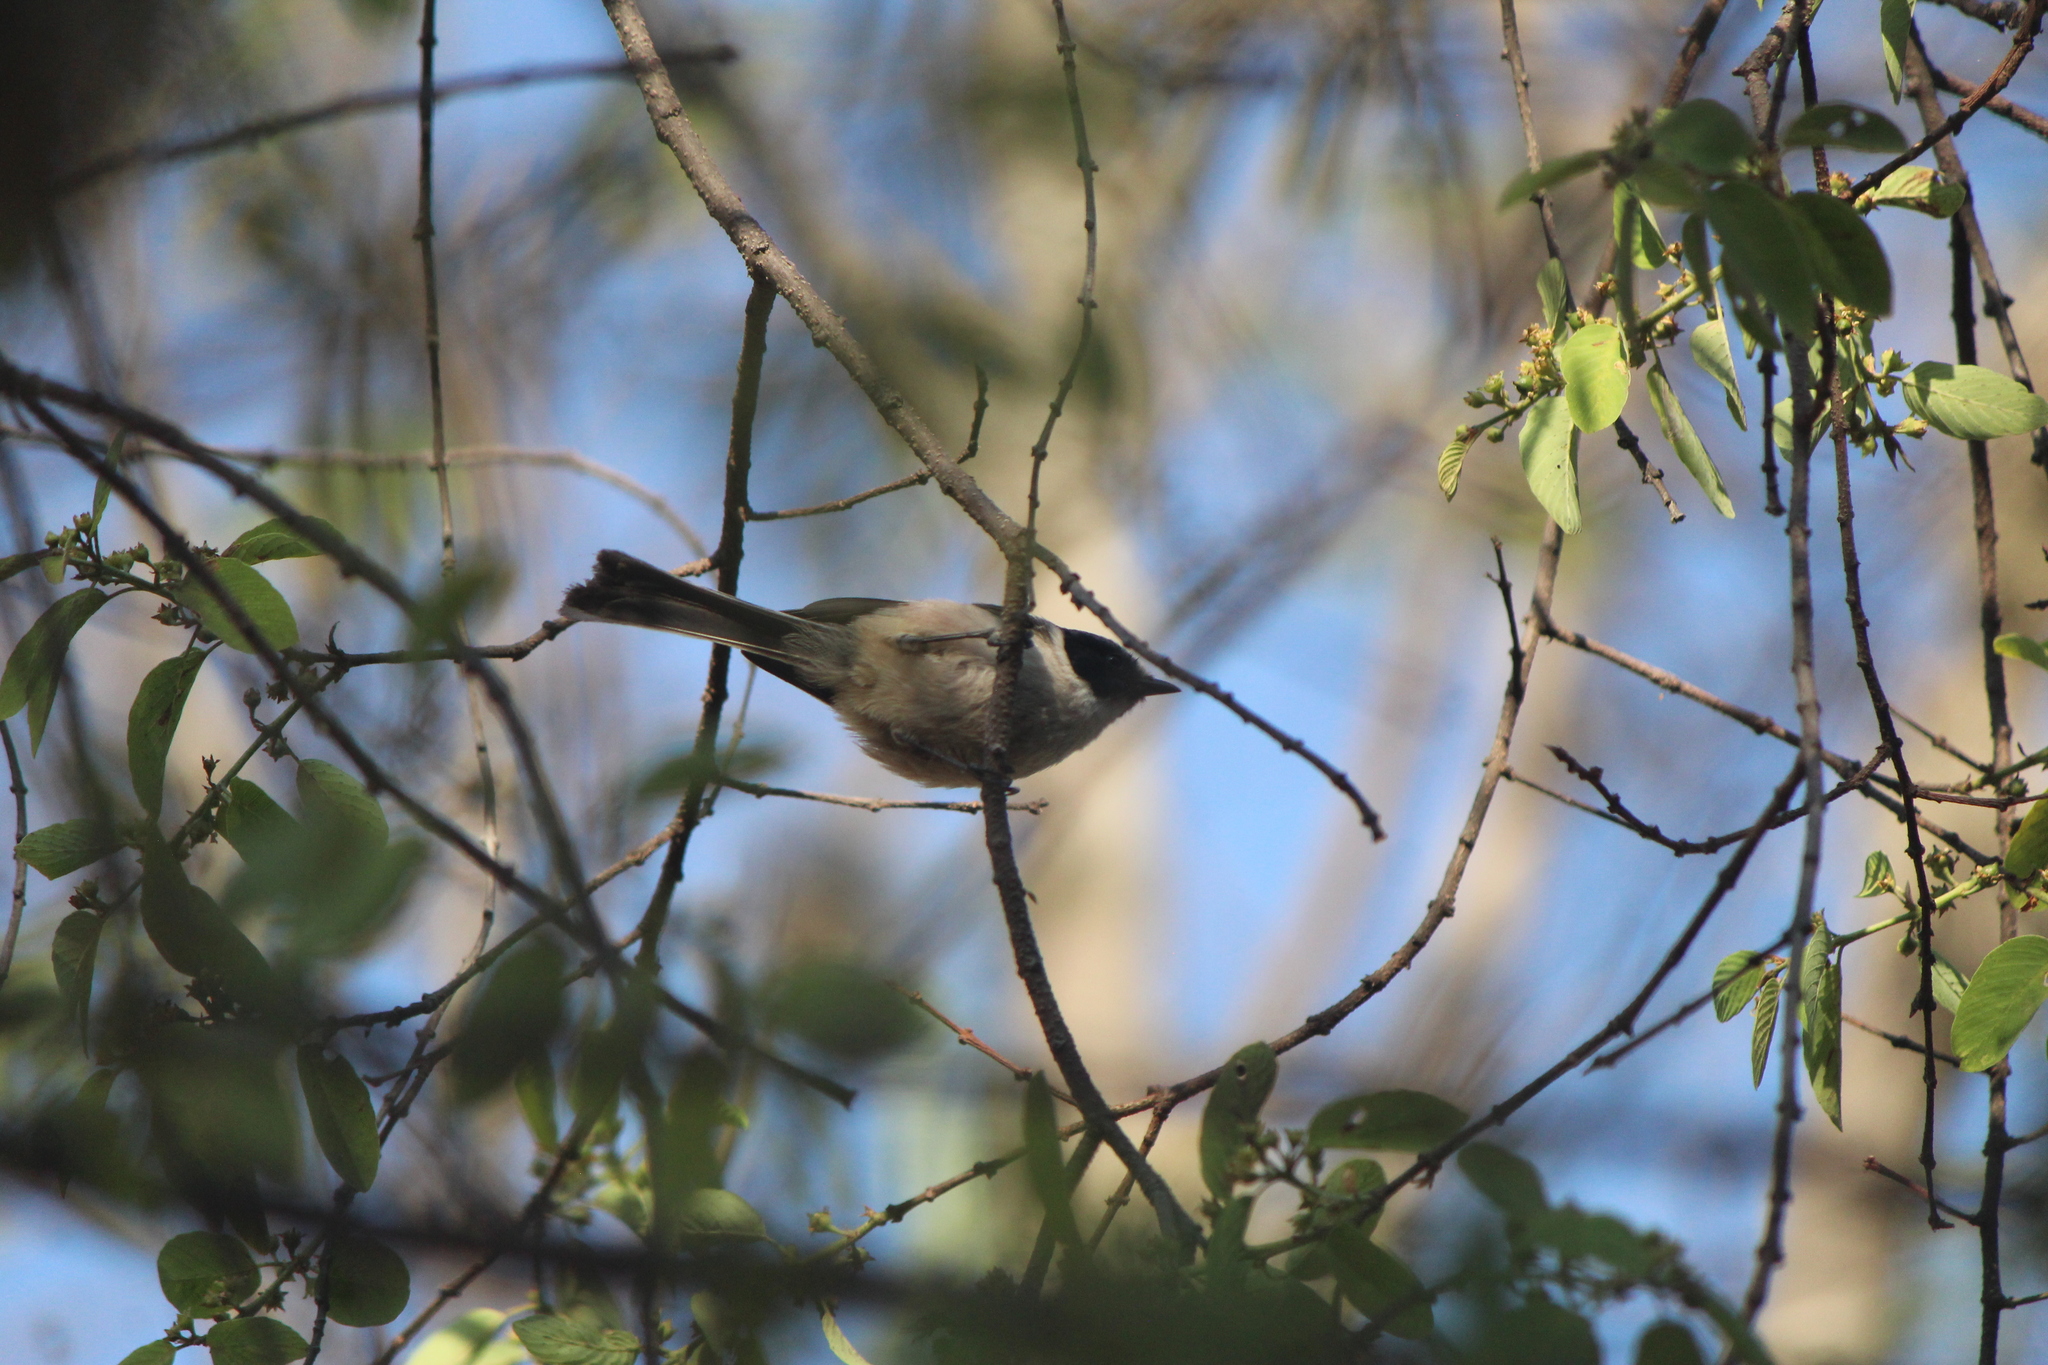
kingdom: Animalia
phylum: Chordata
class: Aves
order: Passeriformes
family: Aegithalidae
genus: Psaltriparus
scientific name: Psaltriparus minimus
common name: American bushtit
